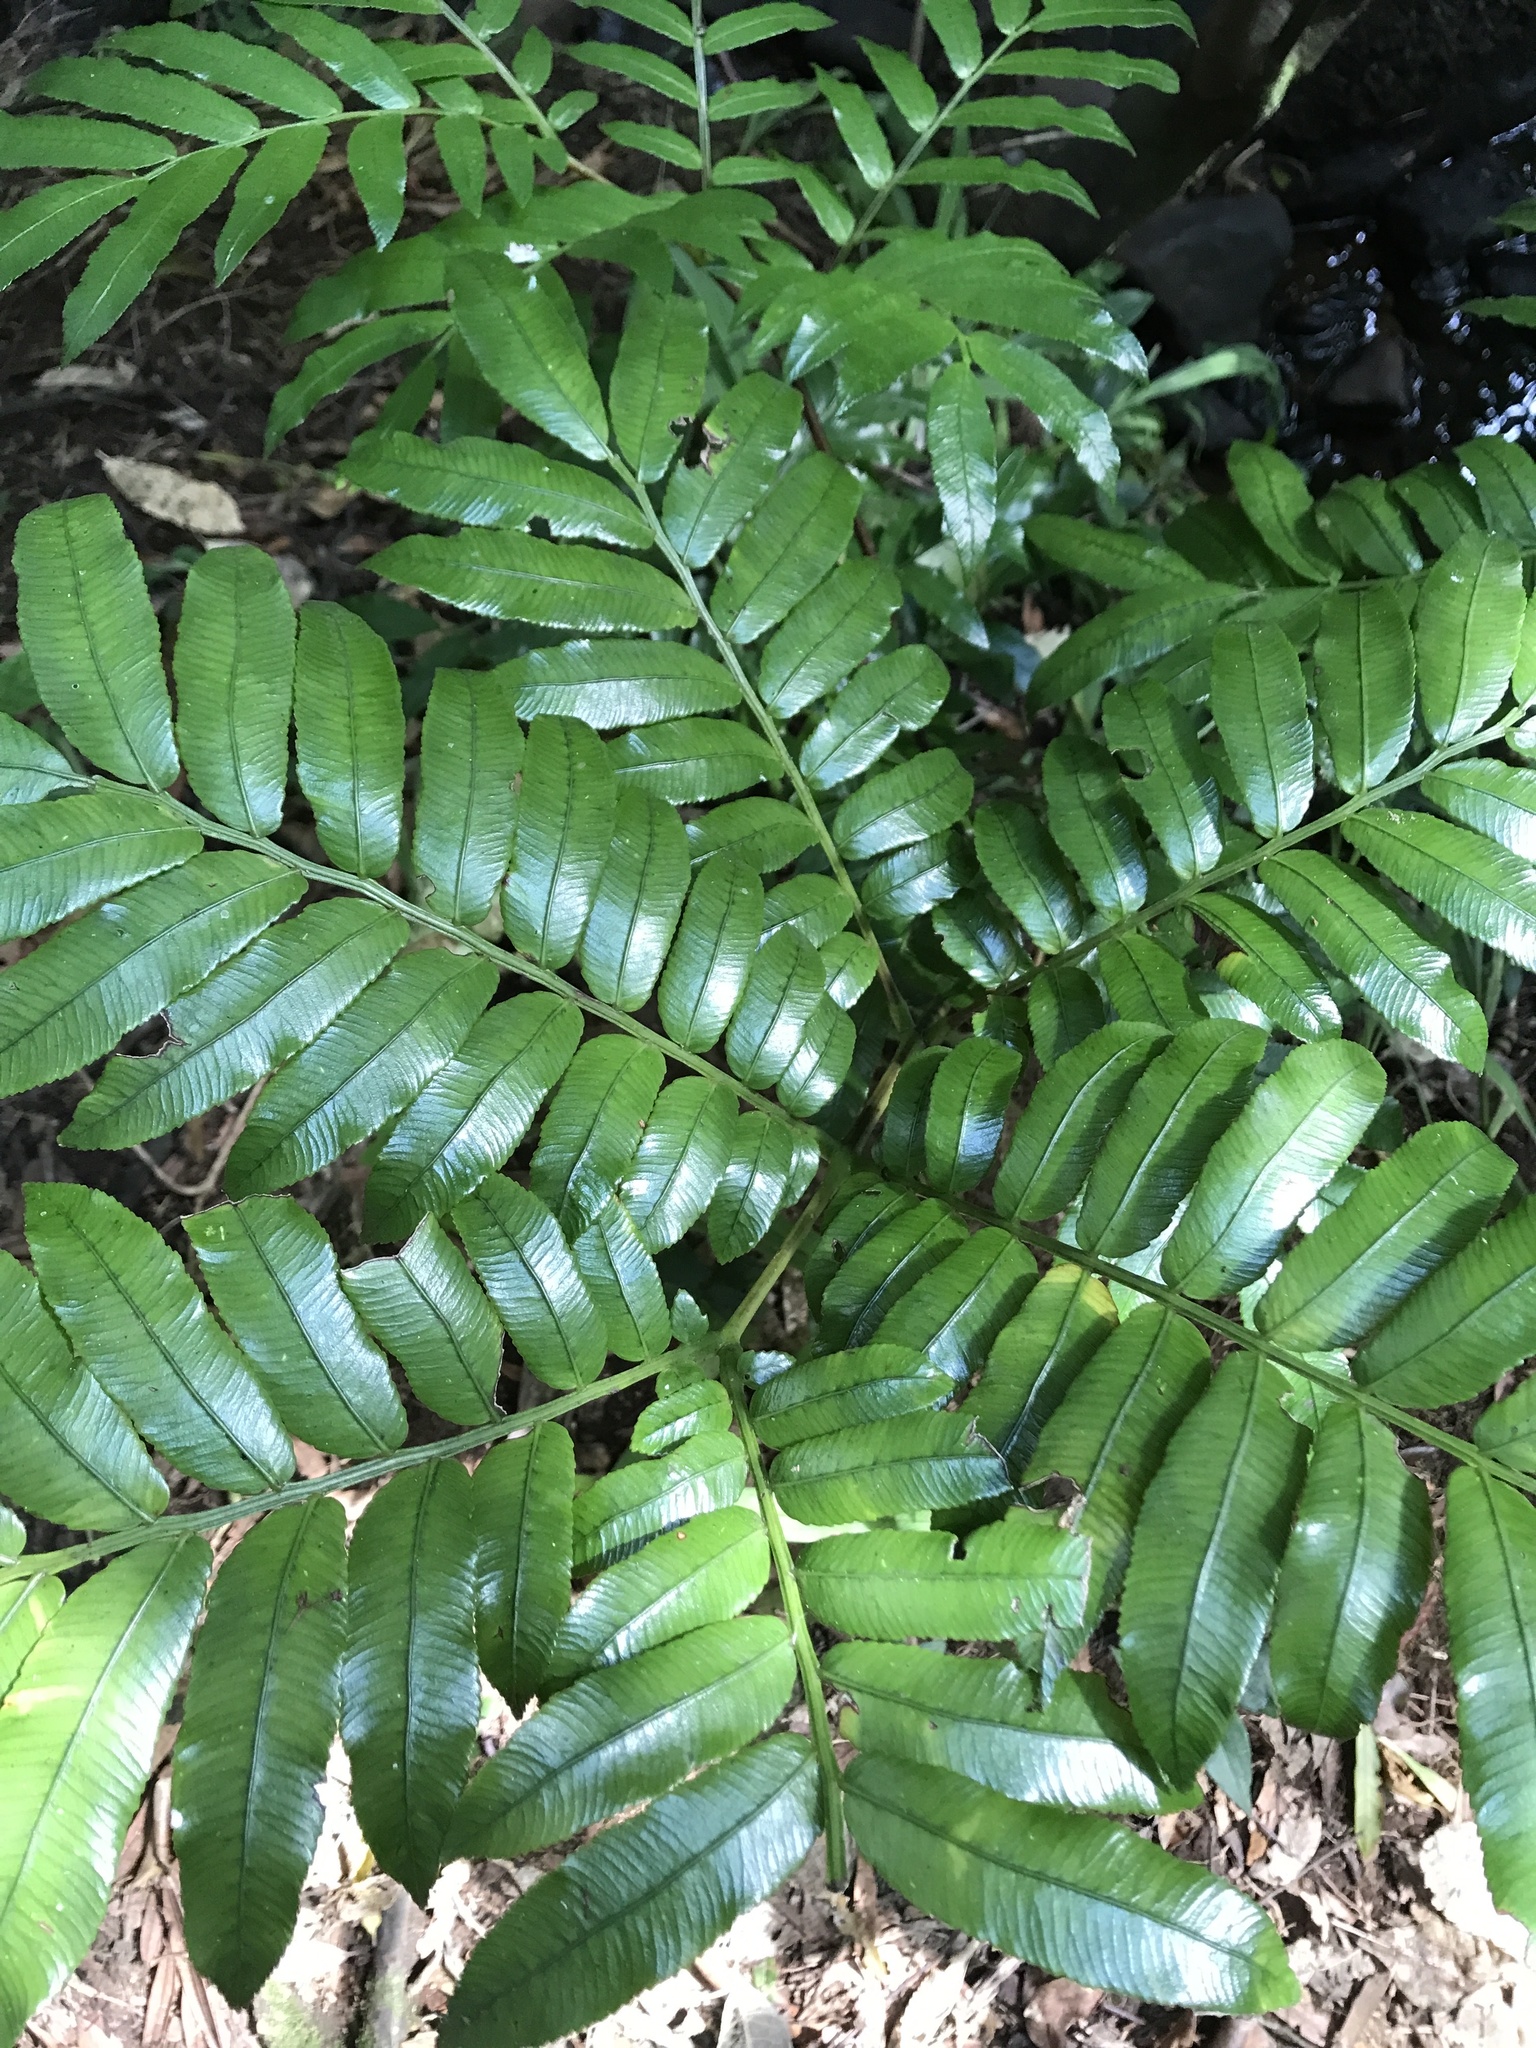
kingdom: Plantae
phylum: Tracheophyta
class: Polypodiopsida
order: Marattiales
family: Marattiaceae
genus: Ptisana
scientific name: Ptisana salicina
